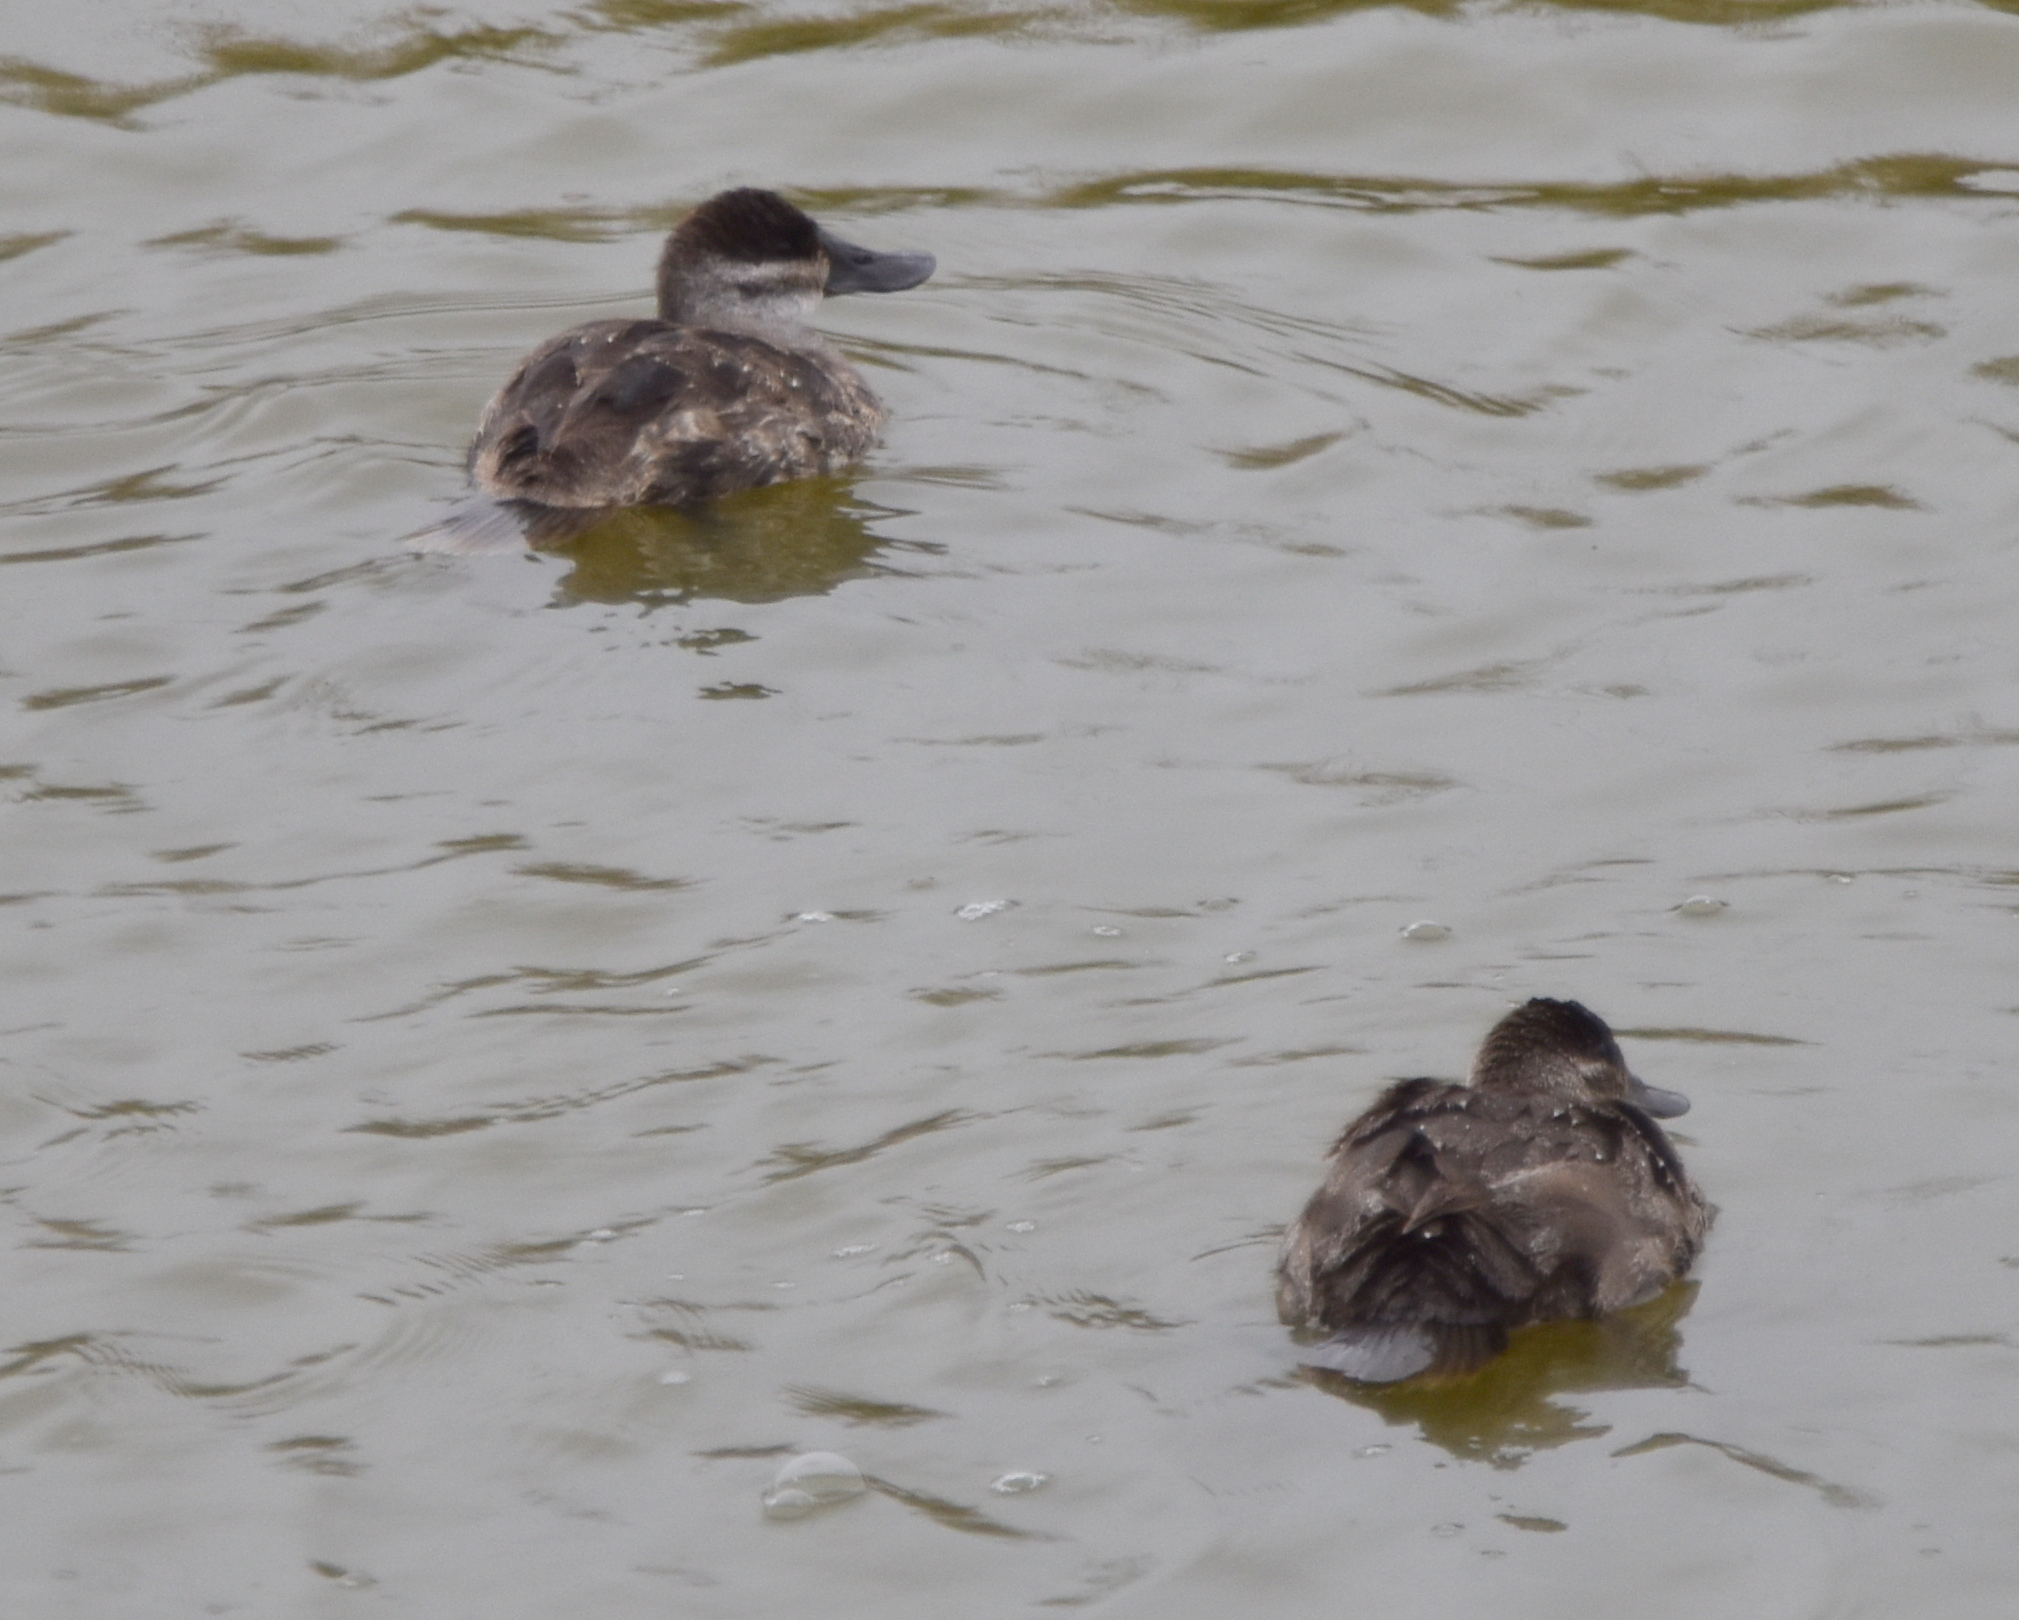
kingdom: Animalia
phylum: Chordata
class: Aves
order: Anseriformes
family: Anatidae
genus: Oxyura
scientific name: Oxyura jamaicensis
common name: Ruddy duck
